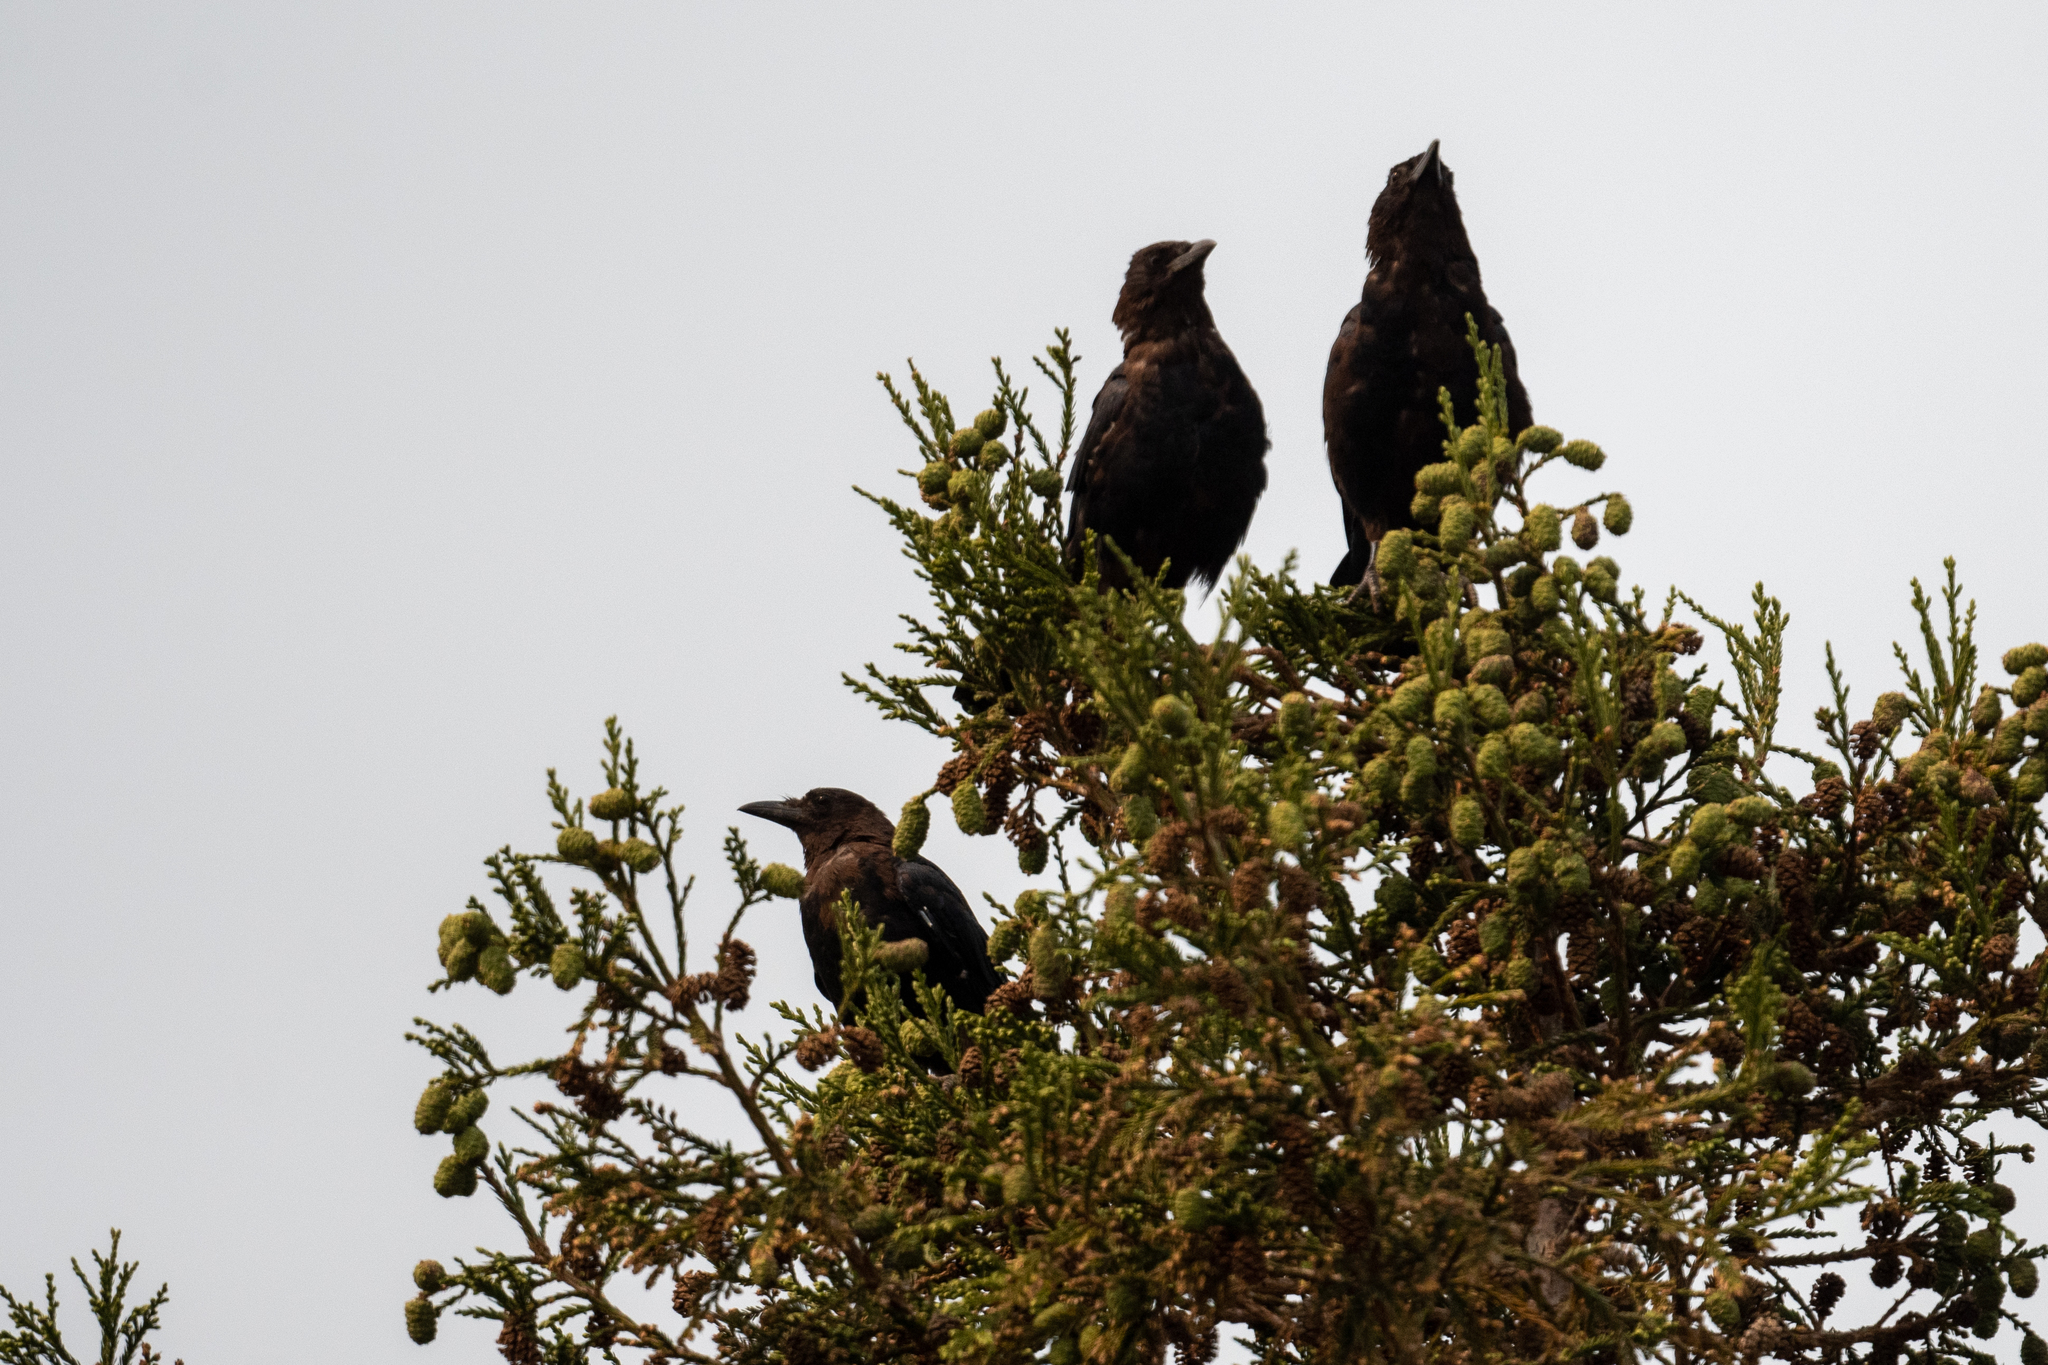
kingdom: Animalia
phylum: Chordata
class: Aves
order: Passeriformes
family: Corvidae
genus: Corvus
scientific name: Corvus brachyrhynchos
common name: American crow
